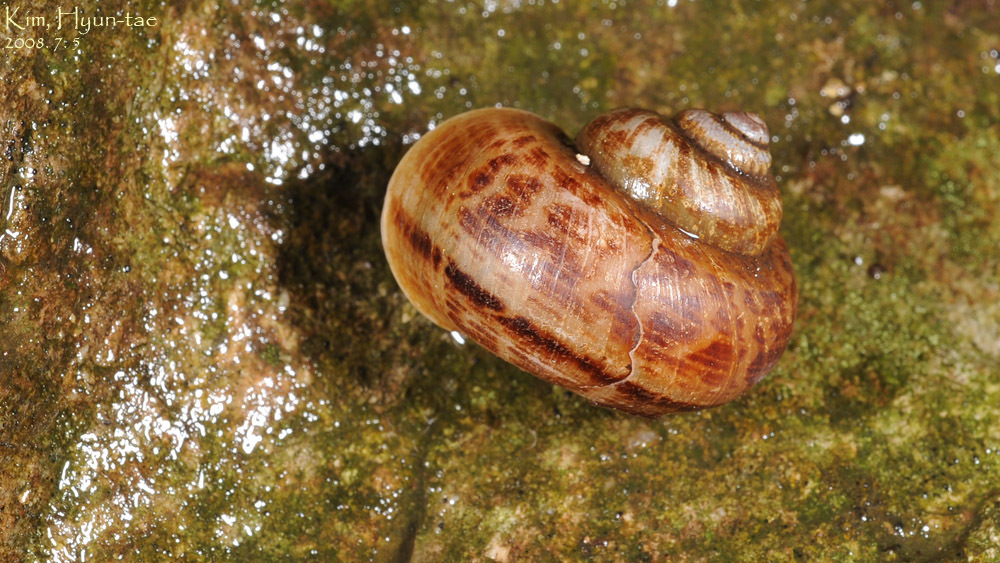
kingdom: Animalia
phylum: Mollusca
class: Gastropoda
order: Architaenioglossa
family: Cyclophoridae
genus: Cyclophorus
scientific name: Cyclophorus herklotsi
